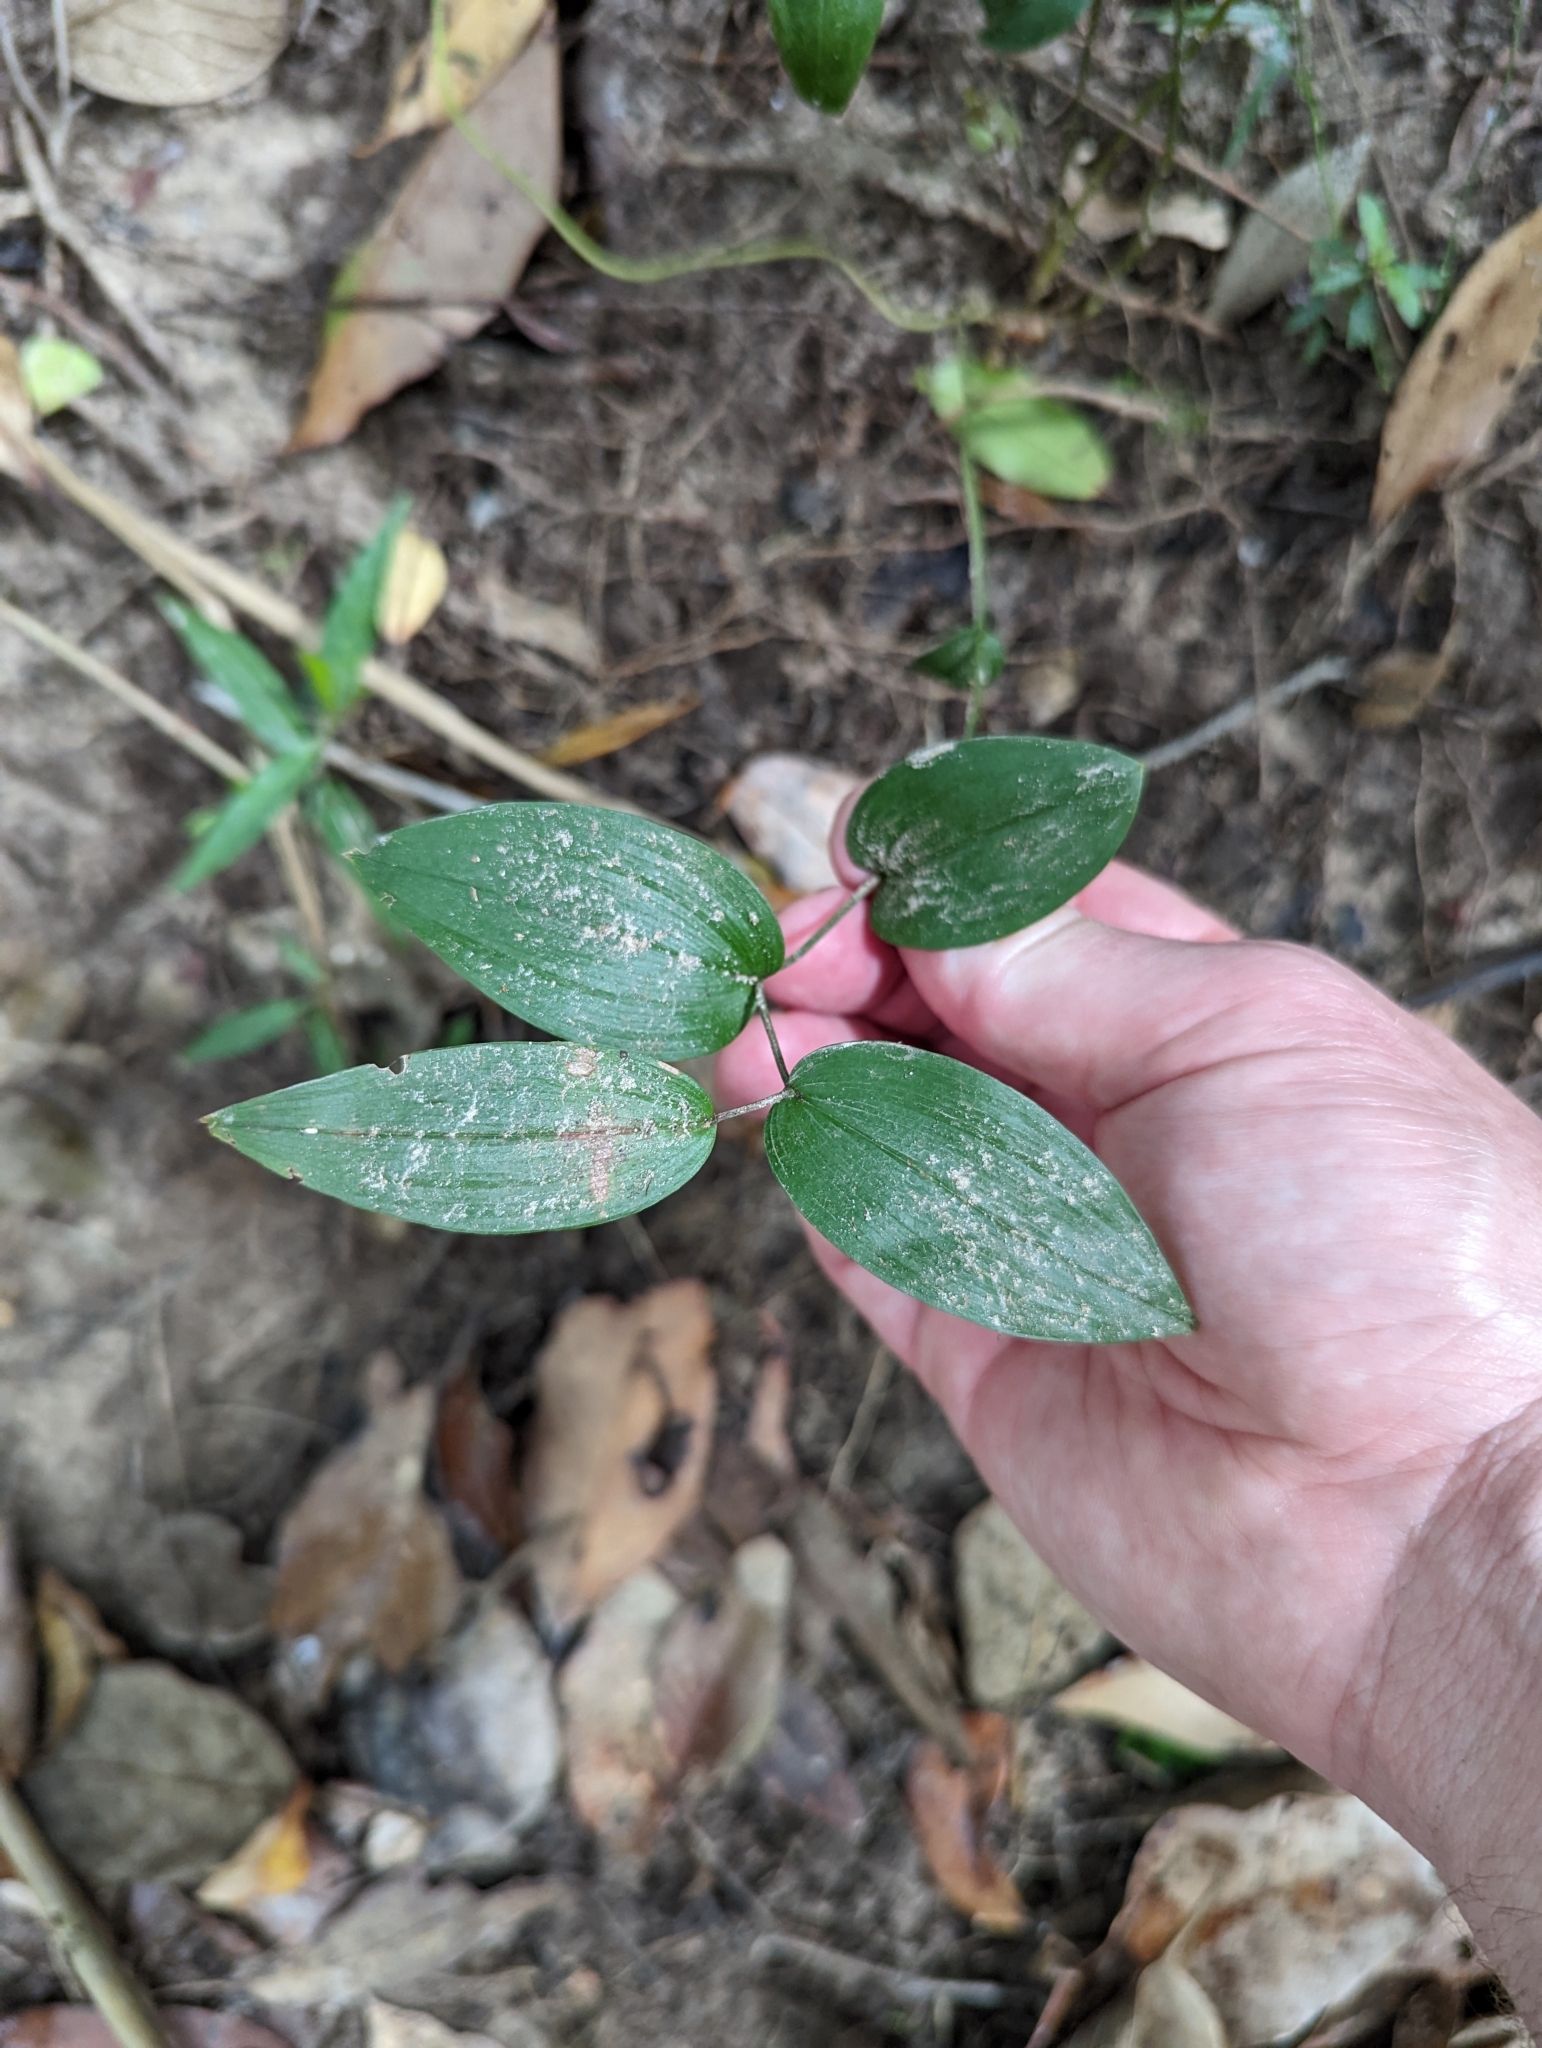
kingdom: Plantae
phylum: Tracheophyta
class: Liliopsida
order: Liliales
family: Colchicaceae
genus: Tripladenia
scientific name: Tripladenia cunninghamii
